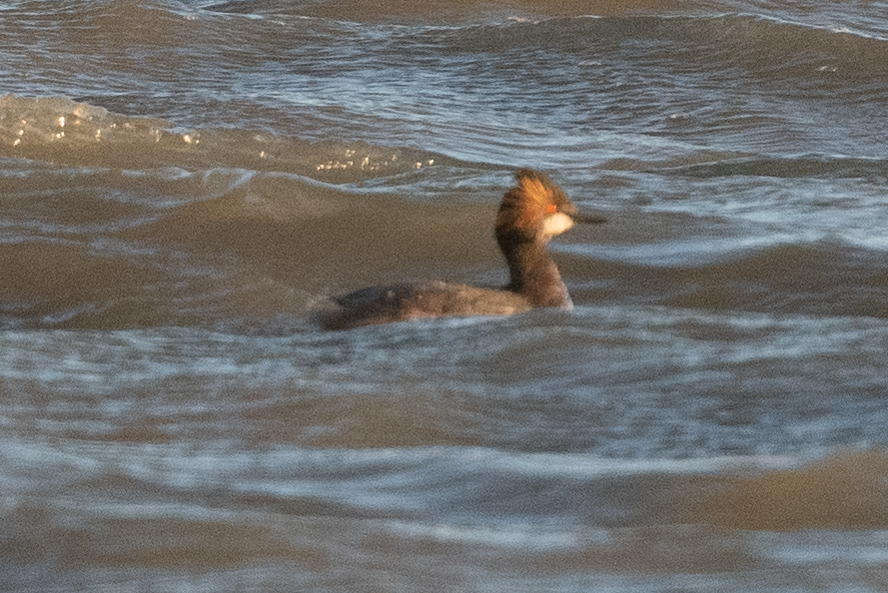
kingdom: Animalia
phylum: Chordata
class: Aves
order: Podicipediformes
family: Podicipedidae
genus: Podiceps
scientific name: Podiceps nigricollis
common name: Black-necked grebe
